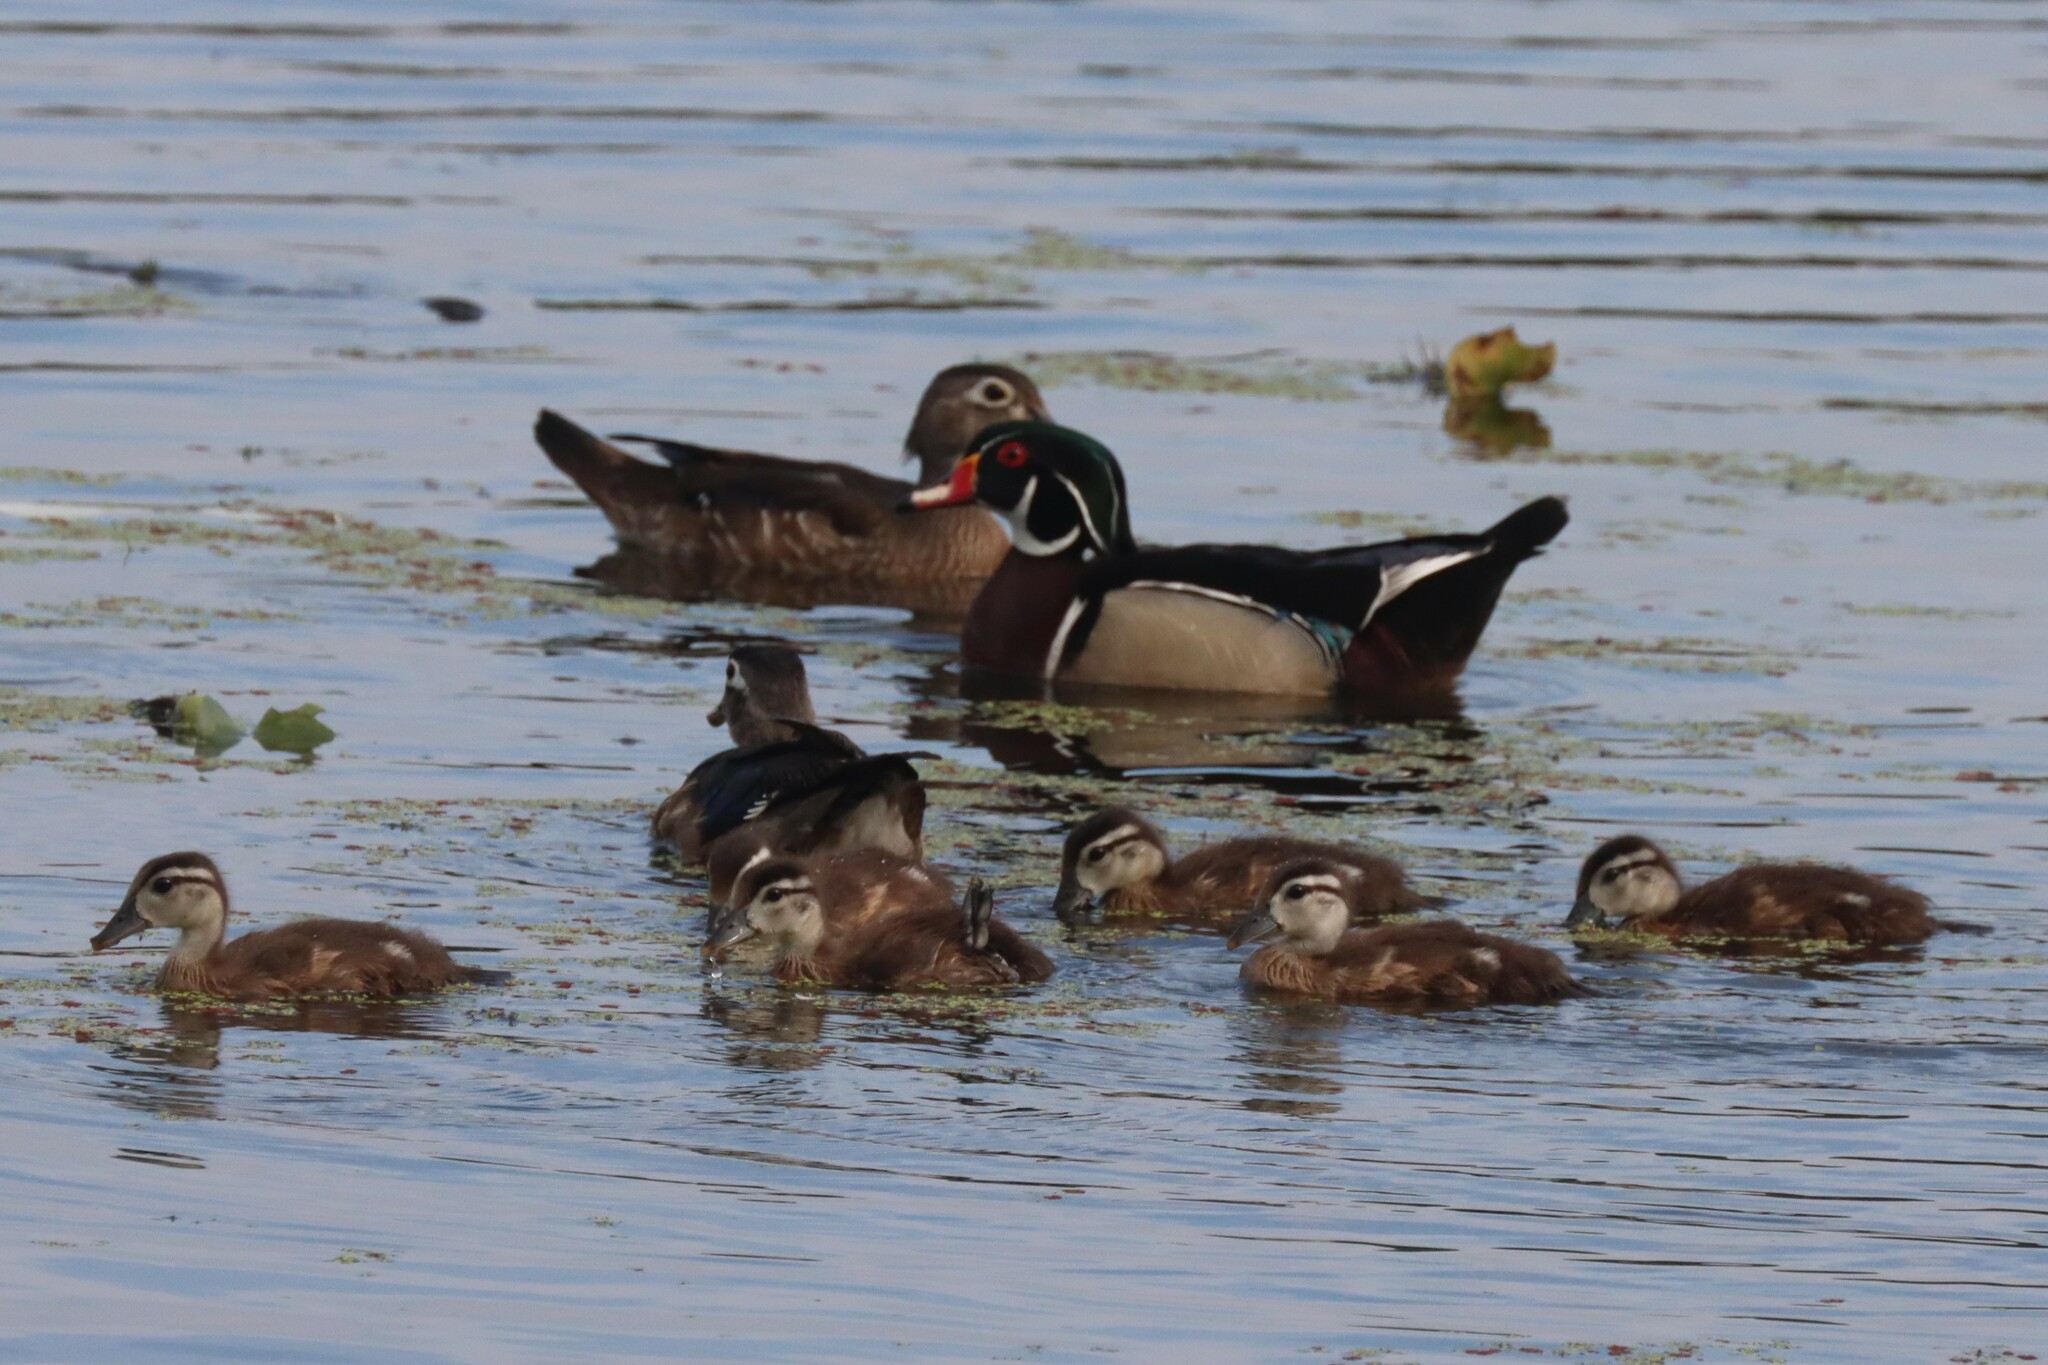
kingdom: Animalia
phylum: Chordata
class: Aves
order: Anseriformes
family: Anatidae
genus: Aix
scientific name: Aix sponsa
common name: Wood duck
